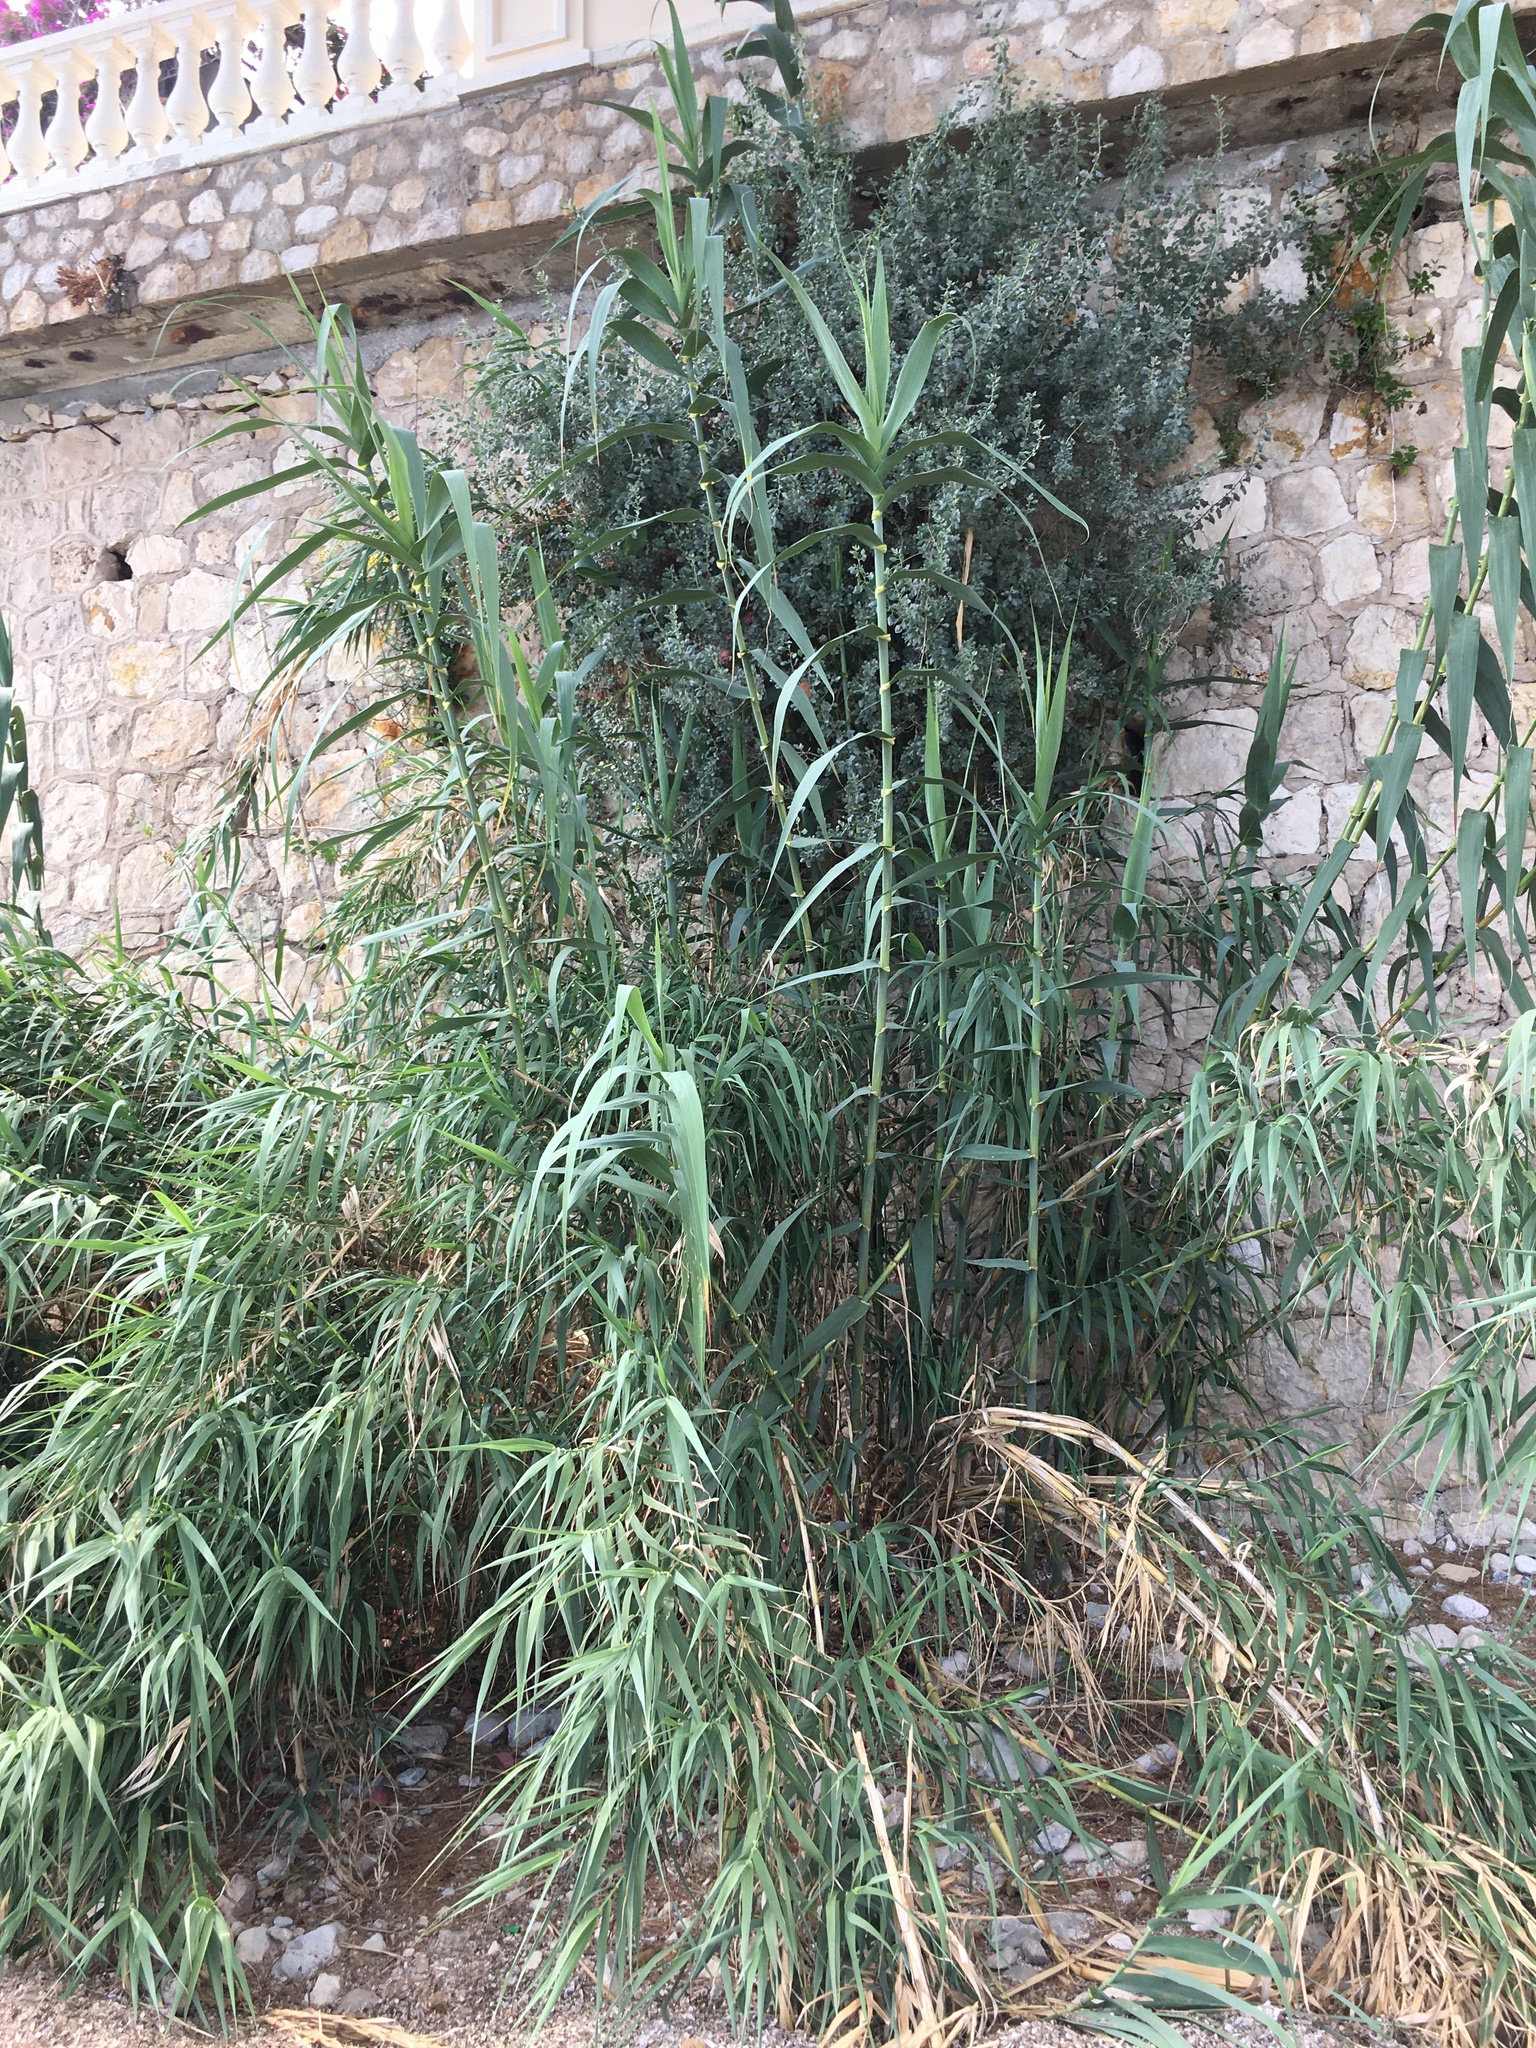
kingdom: Plantae
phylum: Tracheophyta
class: Liliopsida
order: Poales
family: Poaceae
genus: Arundo
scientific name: Arundo donax
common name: Giant reed
